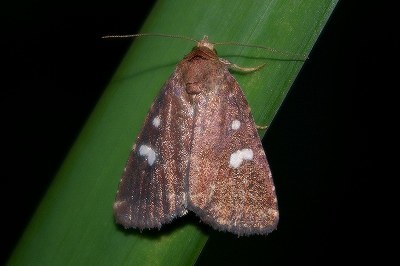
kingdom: Animalia
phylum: Arthropoda
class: Insecta
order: Lepidoptera
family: Noctuidae
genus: Acosmetia
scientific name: Acosmetia biguttula
